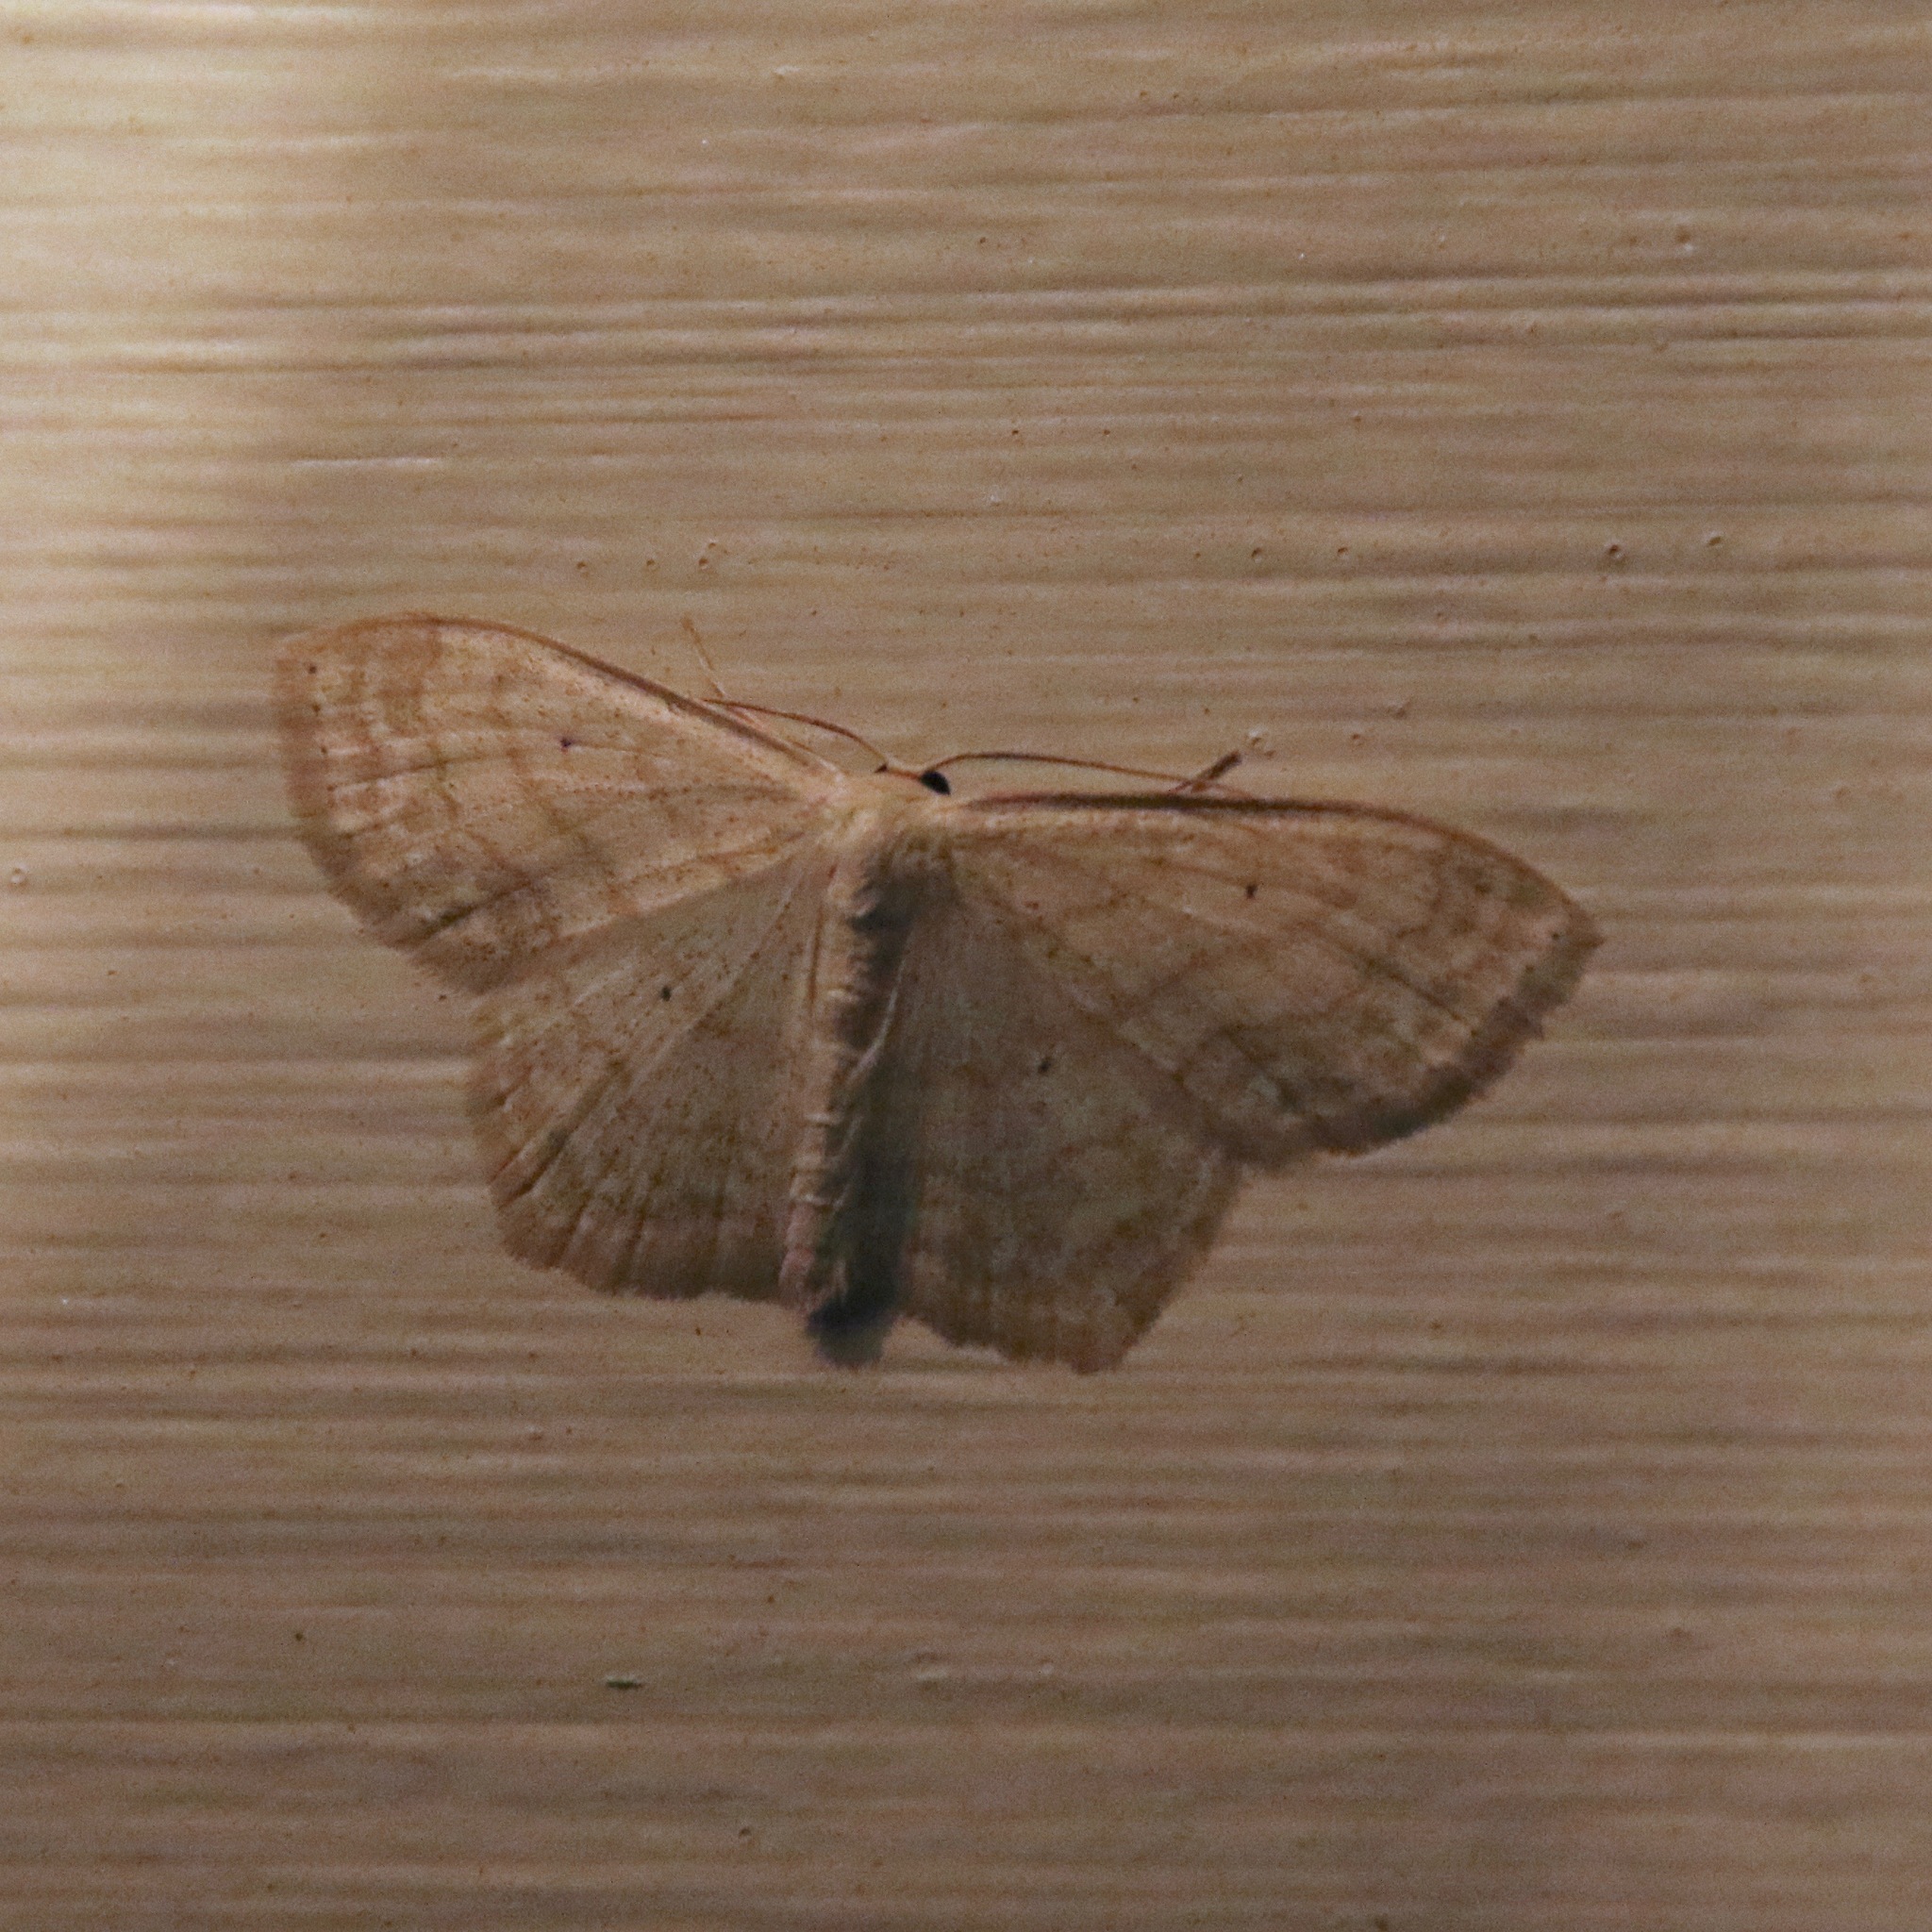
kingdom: Animalia
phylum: Arthropoda
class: Insecta
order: Lepidoptera
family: Geometridae
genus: Scopula
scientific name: Scopula limboundata
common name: Large lace border
